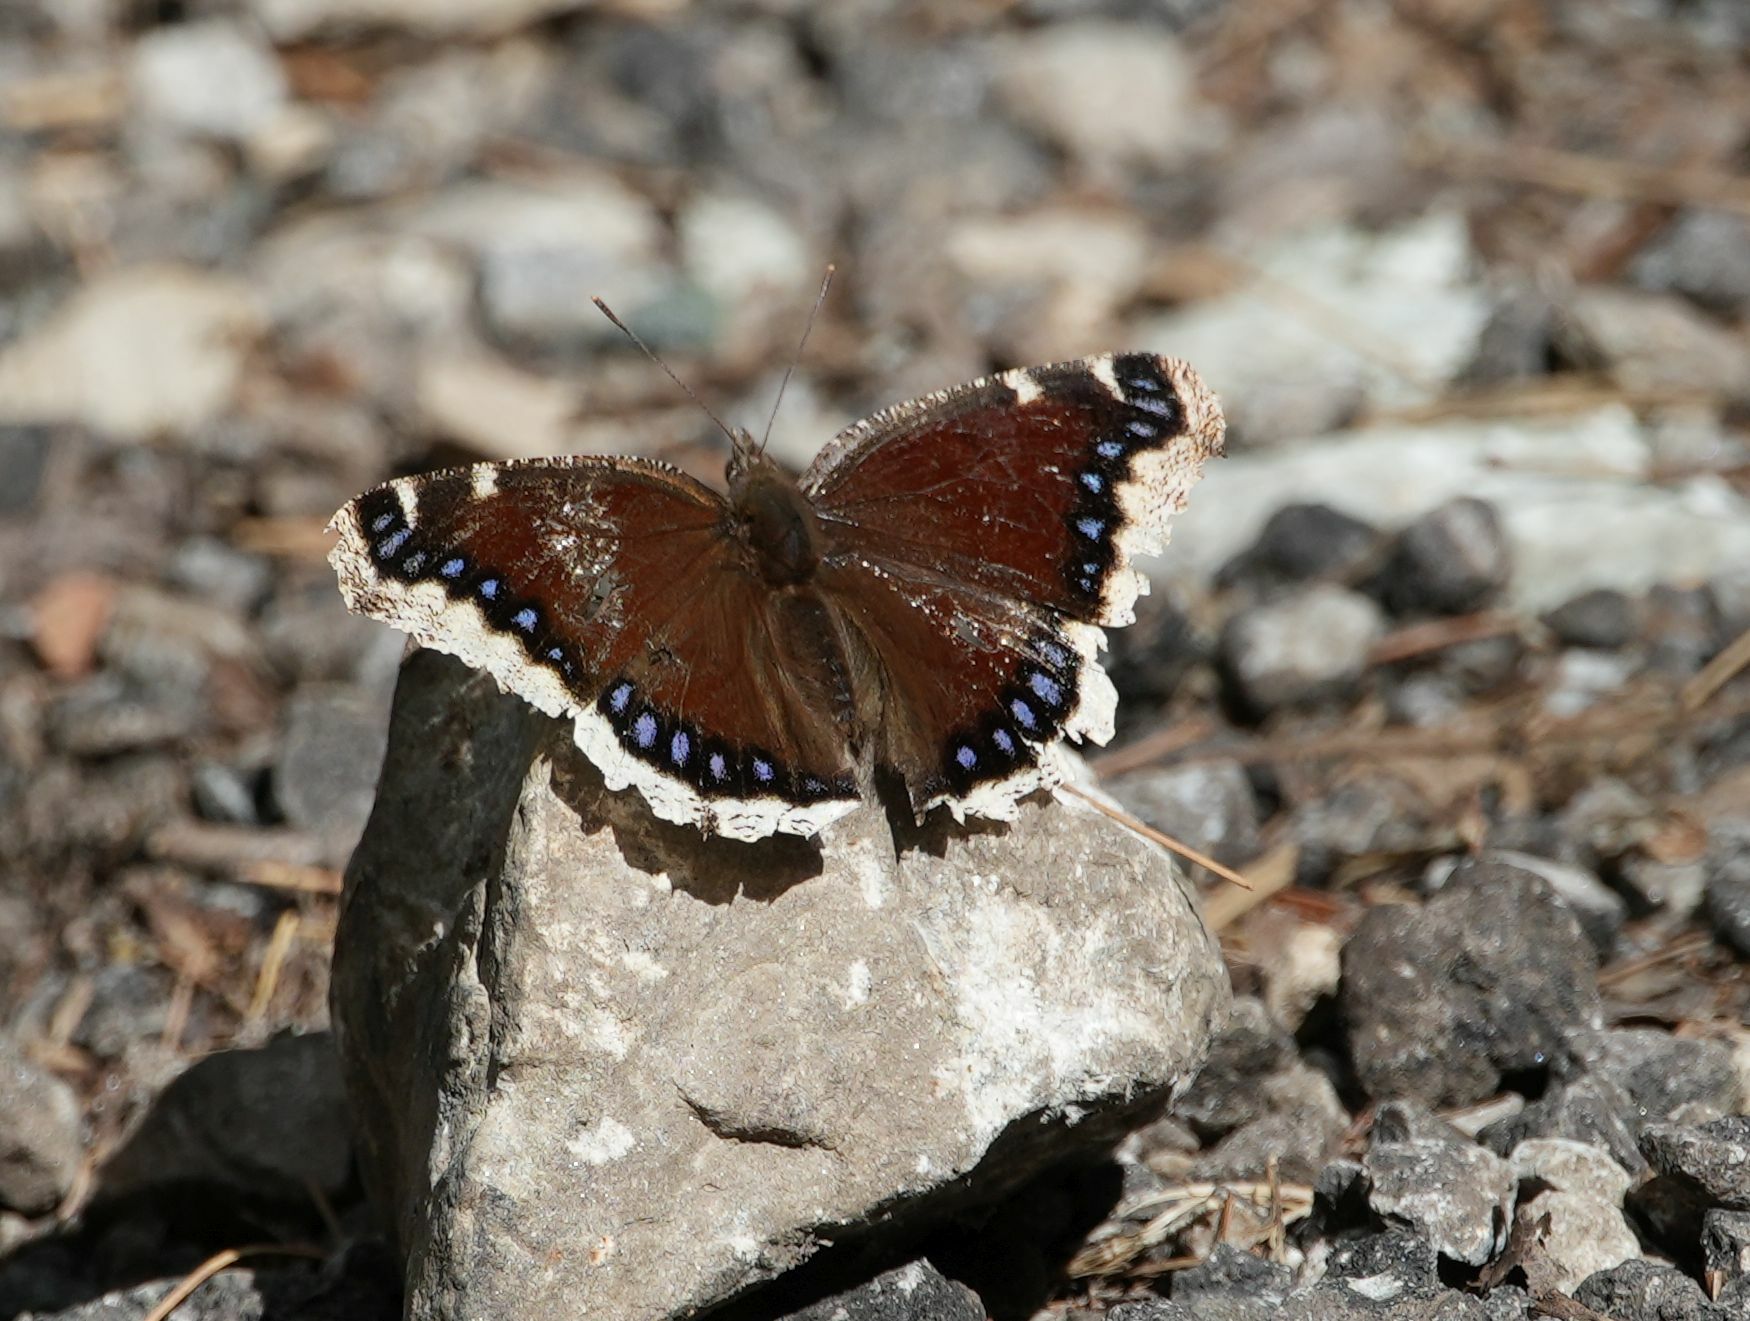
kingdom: Animalia
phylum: Arthropoda
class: Insecta
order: Lepidoptera
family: Nymphalidae
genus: Nymphalis
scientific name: Nymphalis antiopa
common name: Camberwell beauty
